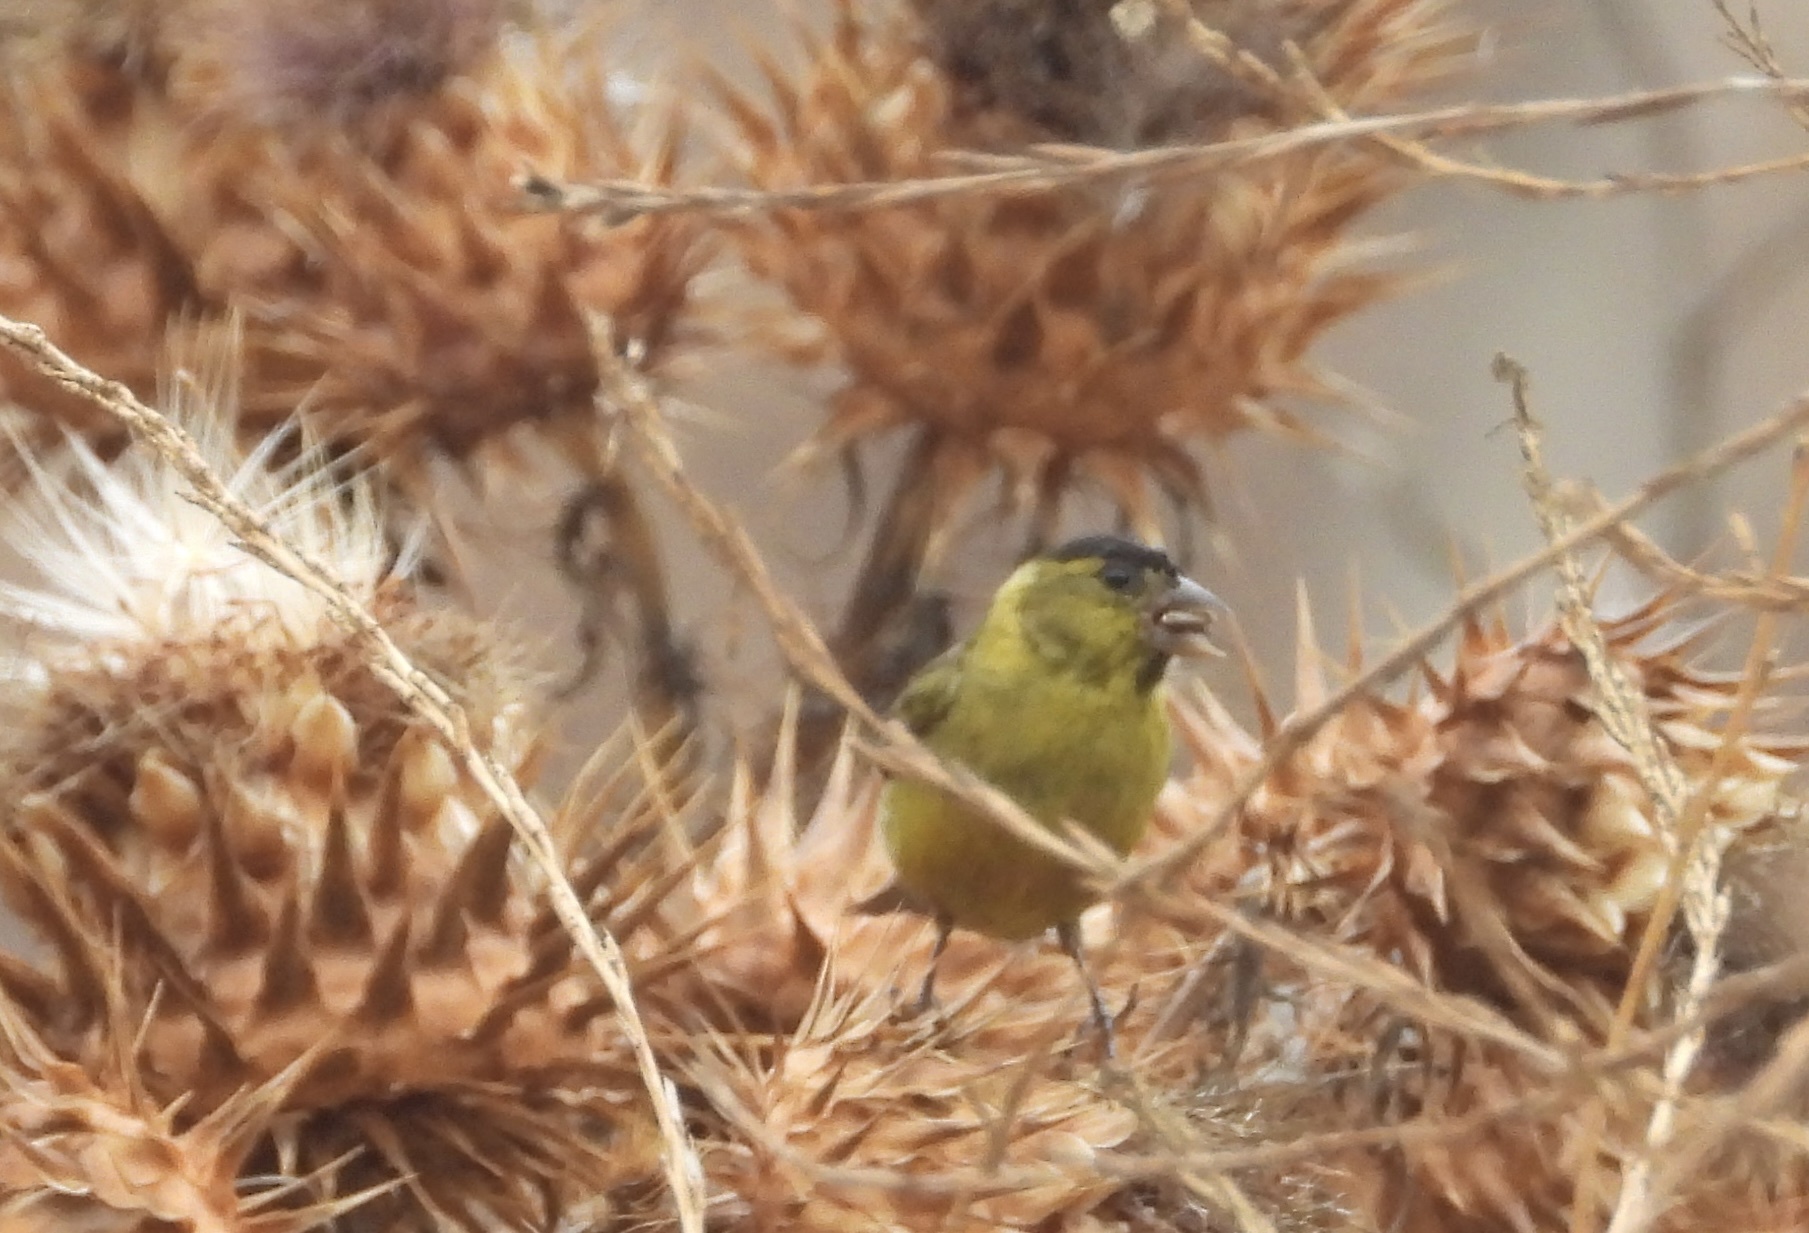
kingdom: Animalia
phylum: Chordata
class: Aves
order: Passeriformes
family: Fringillidae
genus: Spinus
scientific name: Spinus barbatus
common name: Black-chinned siskin
